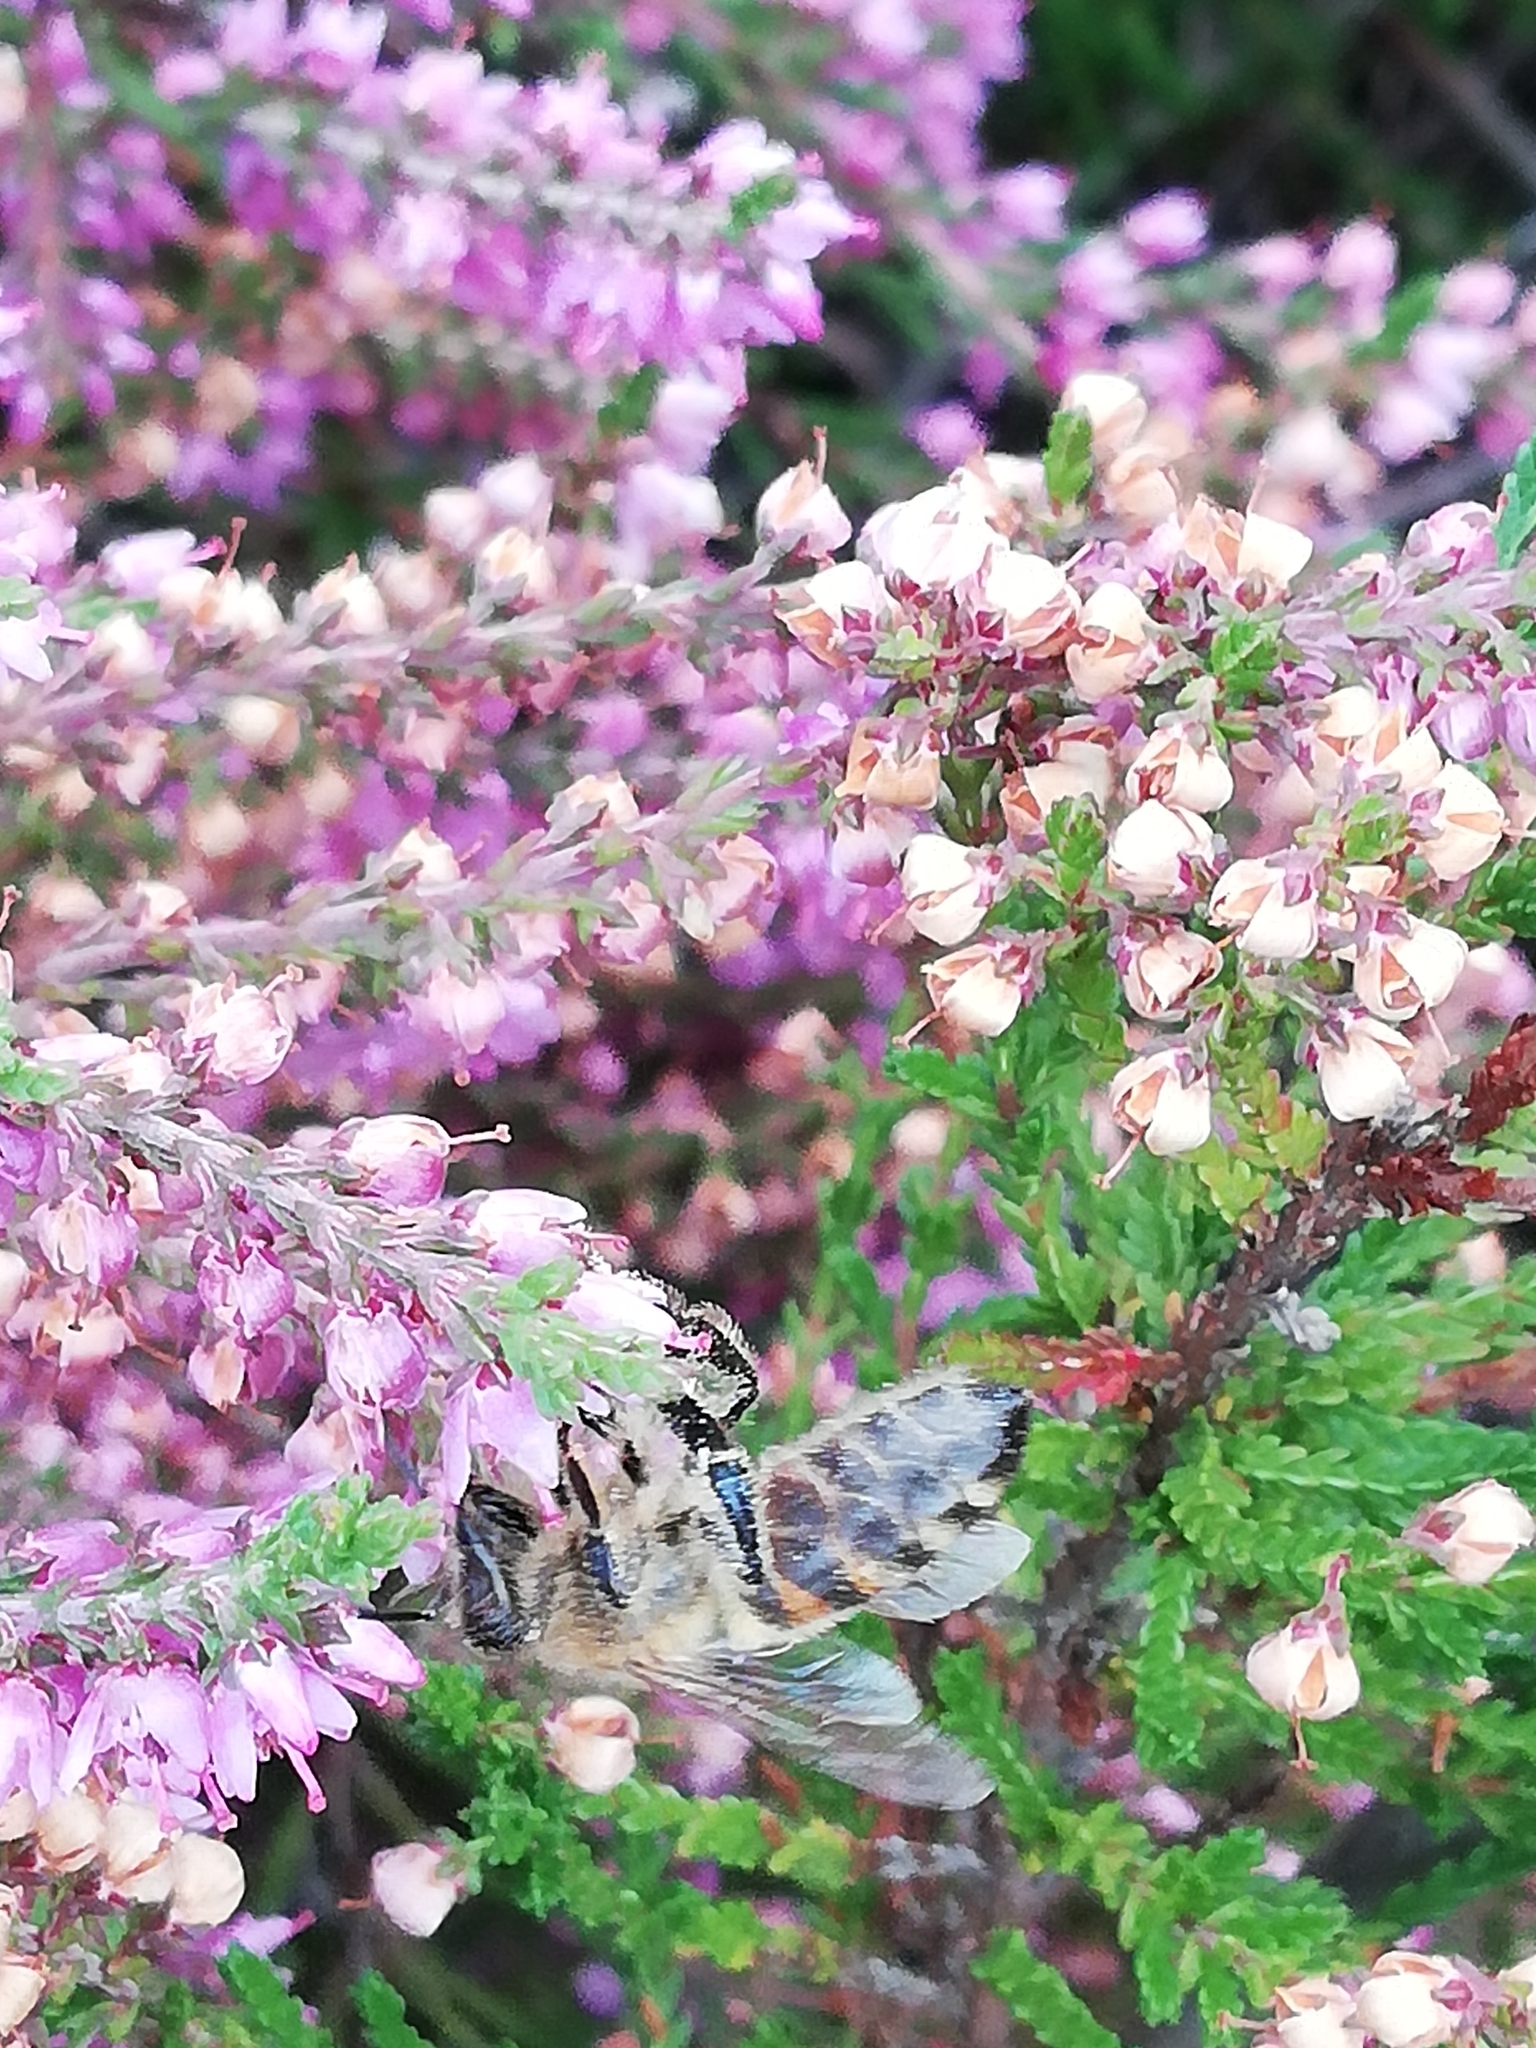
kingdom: Animalia
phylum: Arthropoda
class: Insecta
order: Hymenoptera
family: Apidae
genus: Apis
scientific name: Apis mellifera
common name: Honey bee
